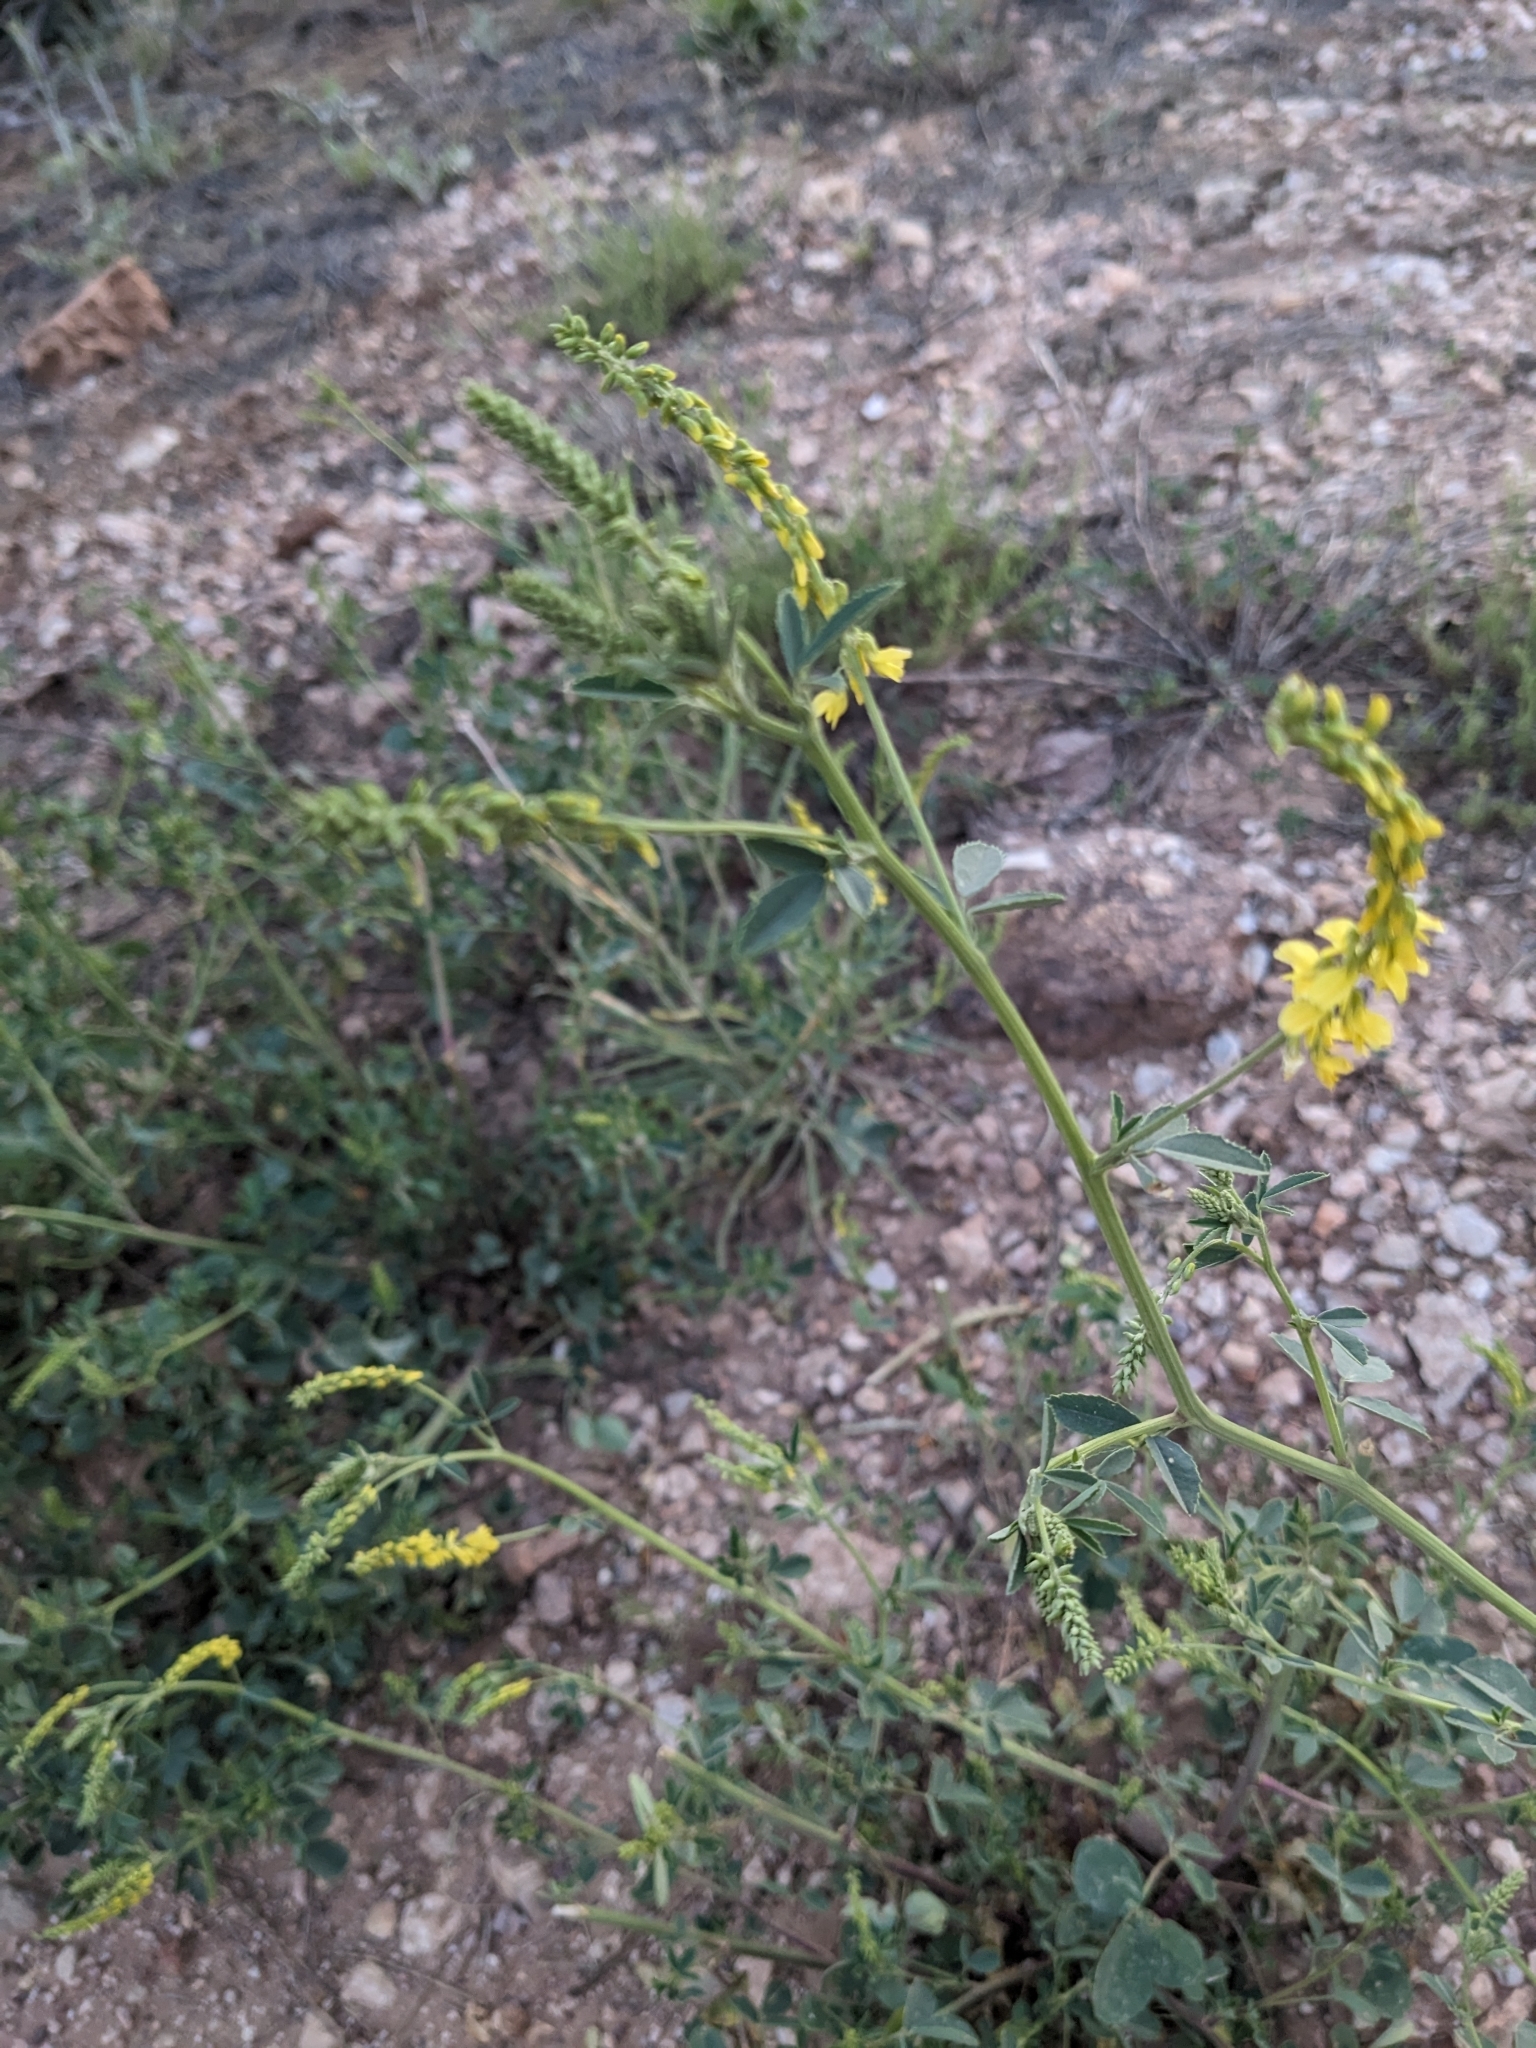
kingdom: Plantae
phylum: Tracheophyta
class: Magnoliopsida
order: Fabales
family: Fabaceae
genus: Melilotus
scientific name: Melilotus officinalis
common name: Sweetclover
